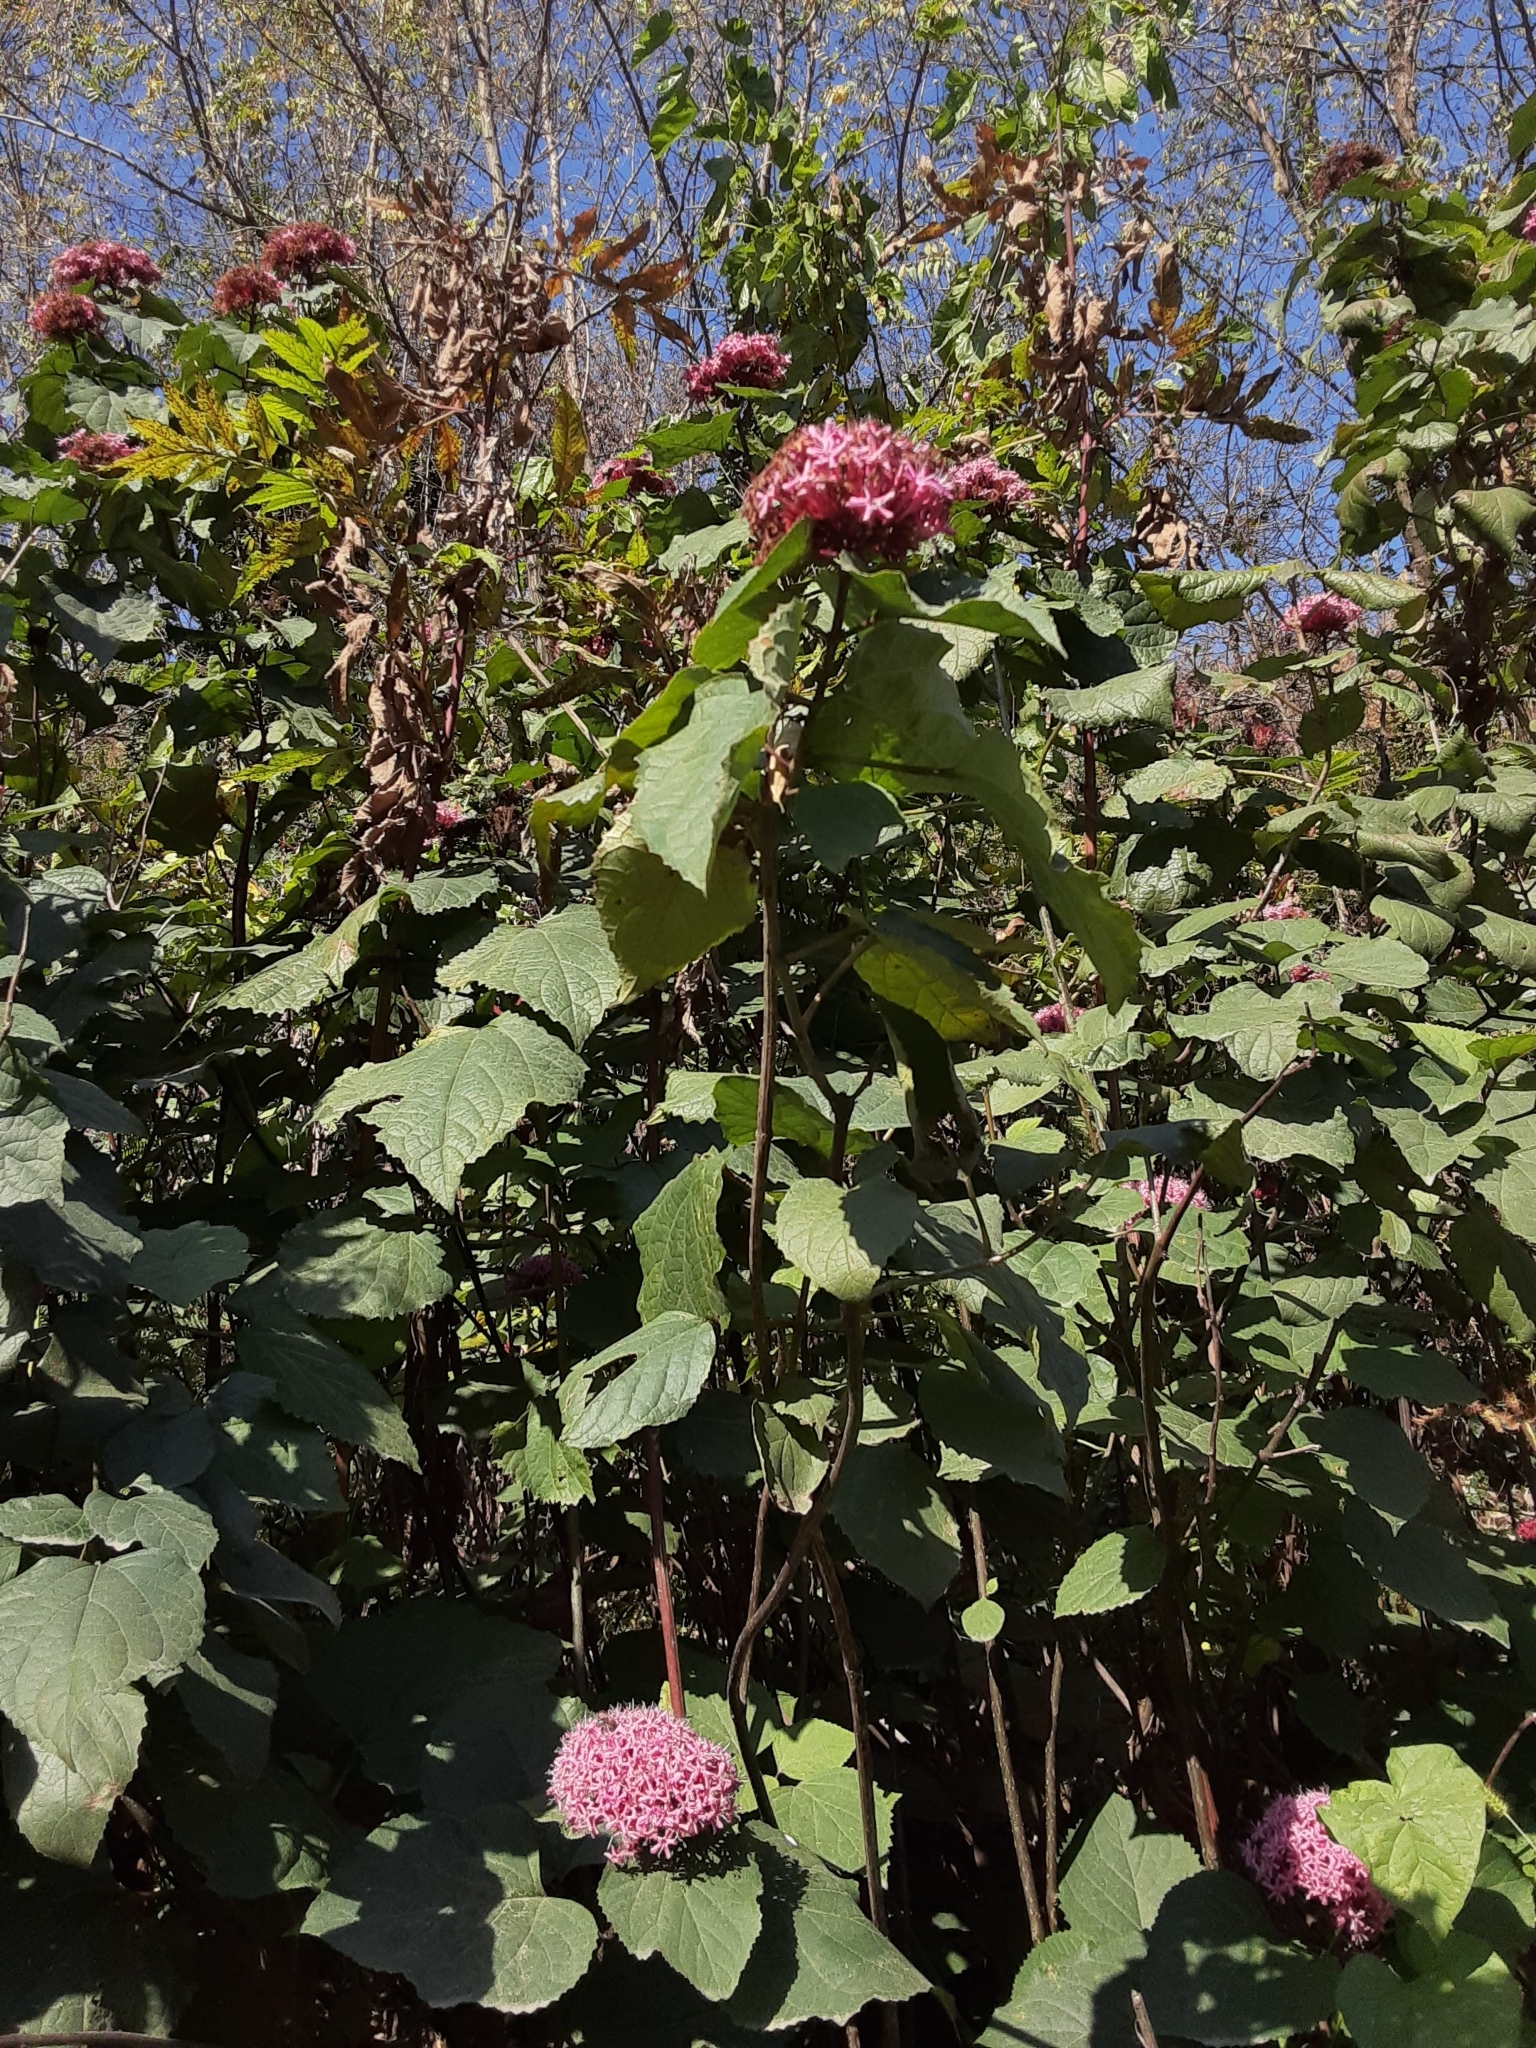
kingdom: Plantae
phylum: Tracheophyta
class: Magnoliopsida
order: Lamiales
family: Lamiaceae
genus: Clerodendrum
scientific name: Clerodendrum bungei
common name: Rose glorybower
